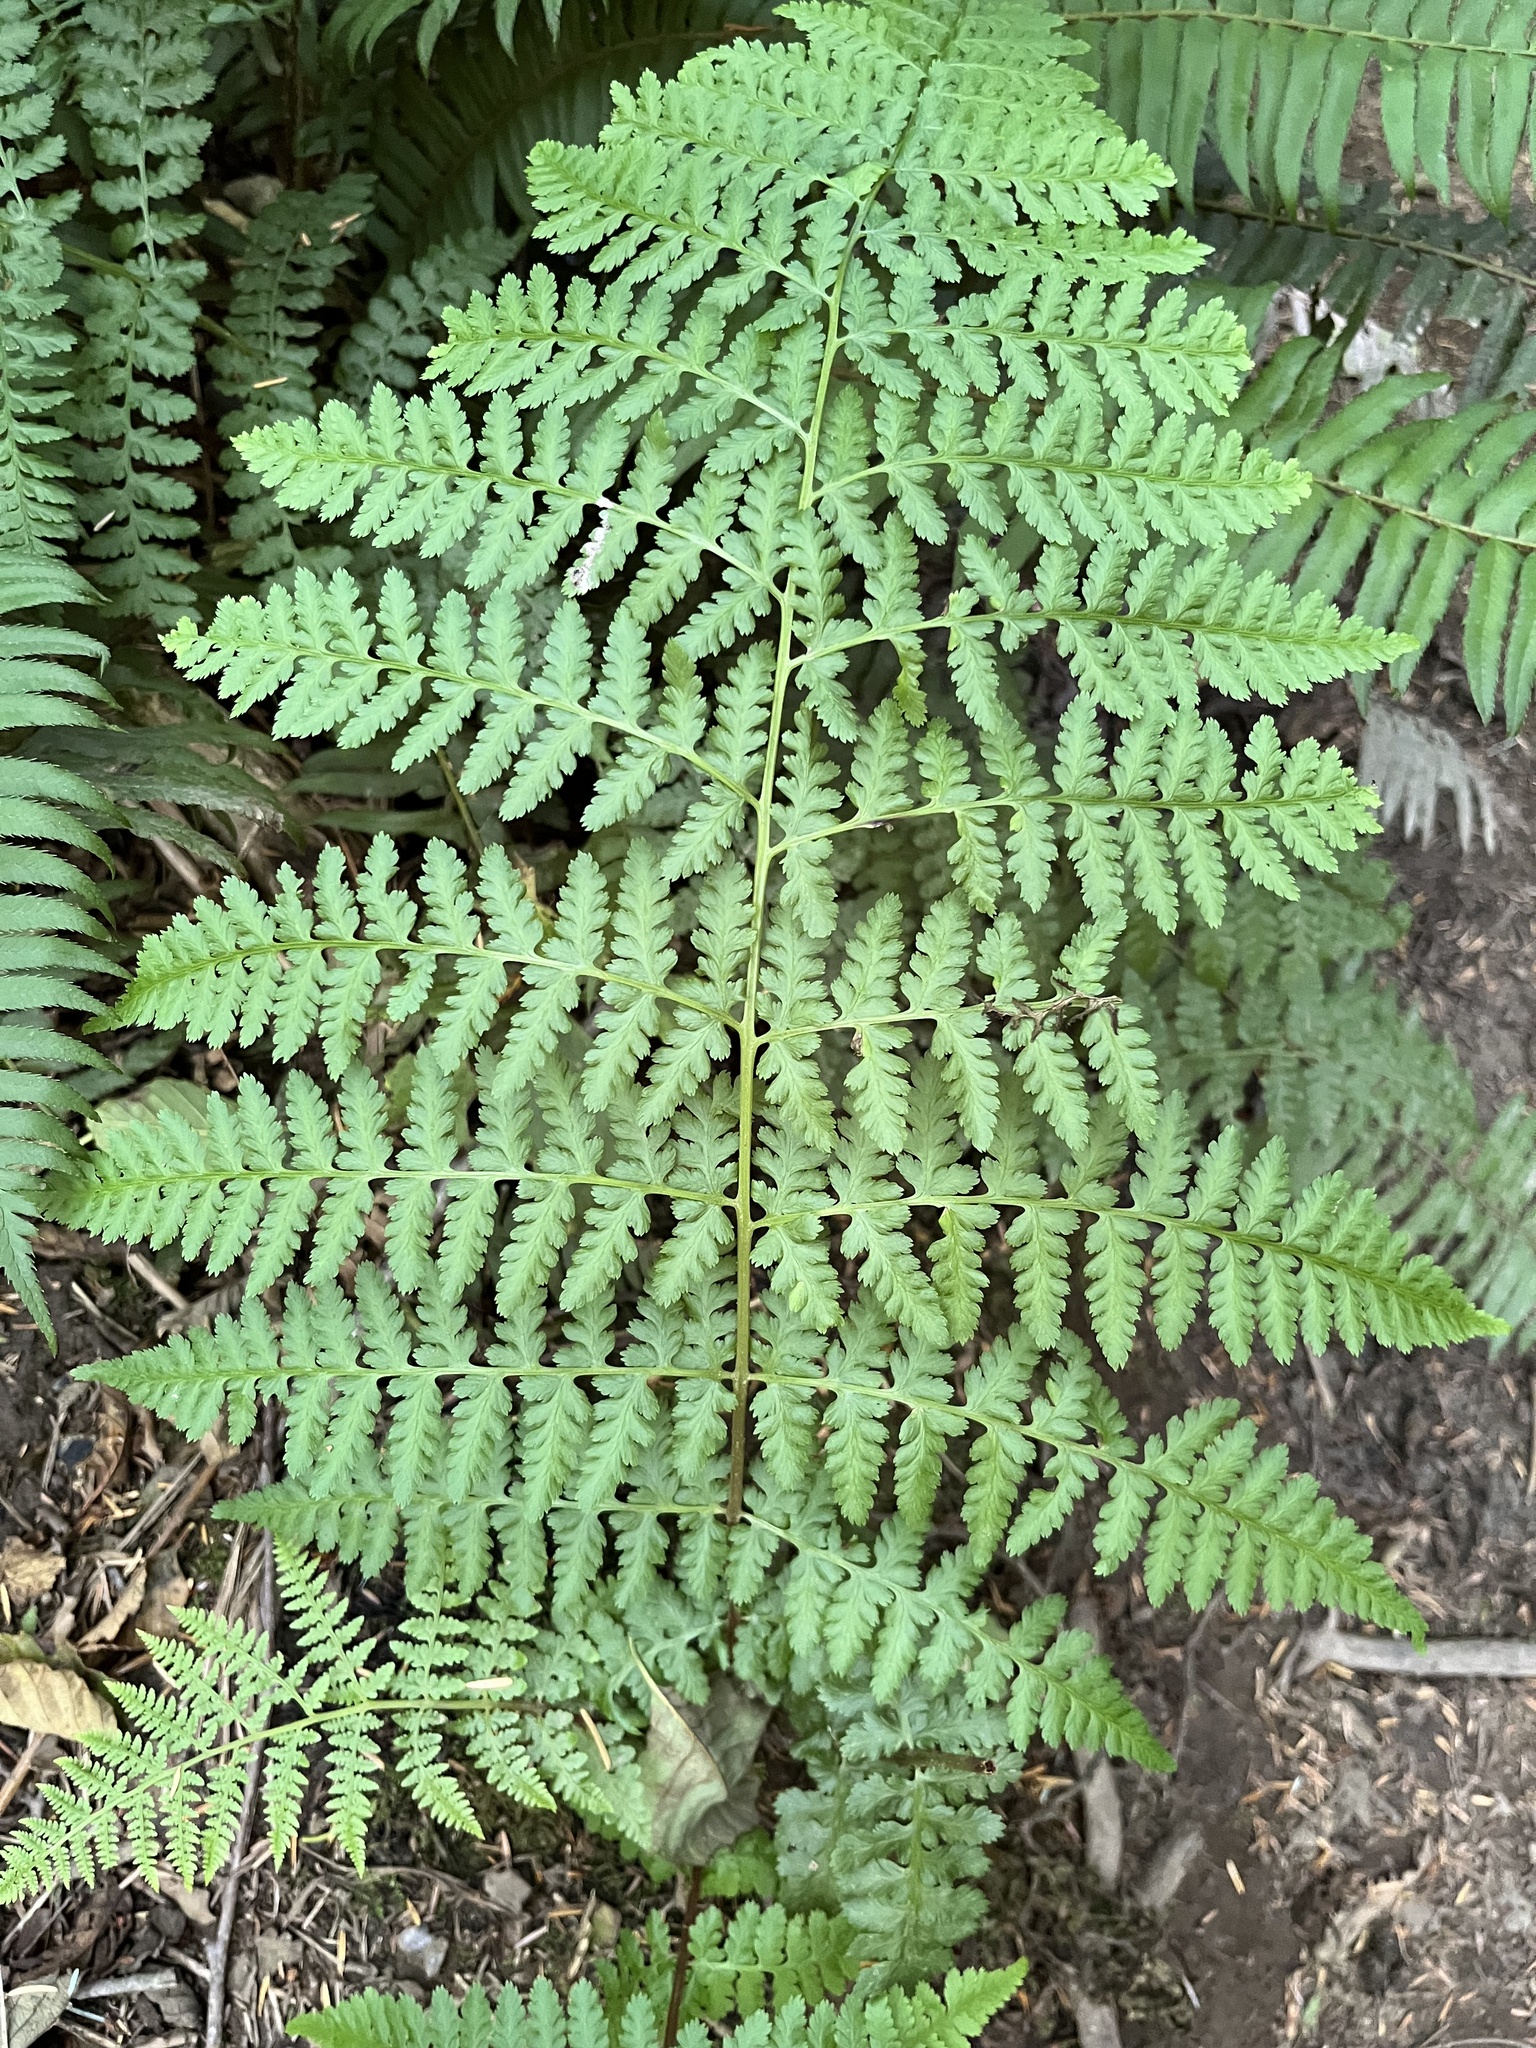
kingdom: Plantae
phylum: Tracheophyta
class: Polypodiopsida
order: Polypodiales
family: Athyriaceae
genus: Athyrium
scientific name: Athyrium filix-femina
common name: Lady fern
